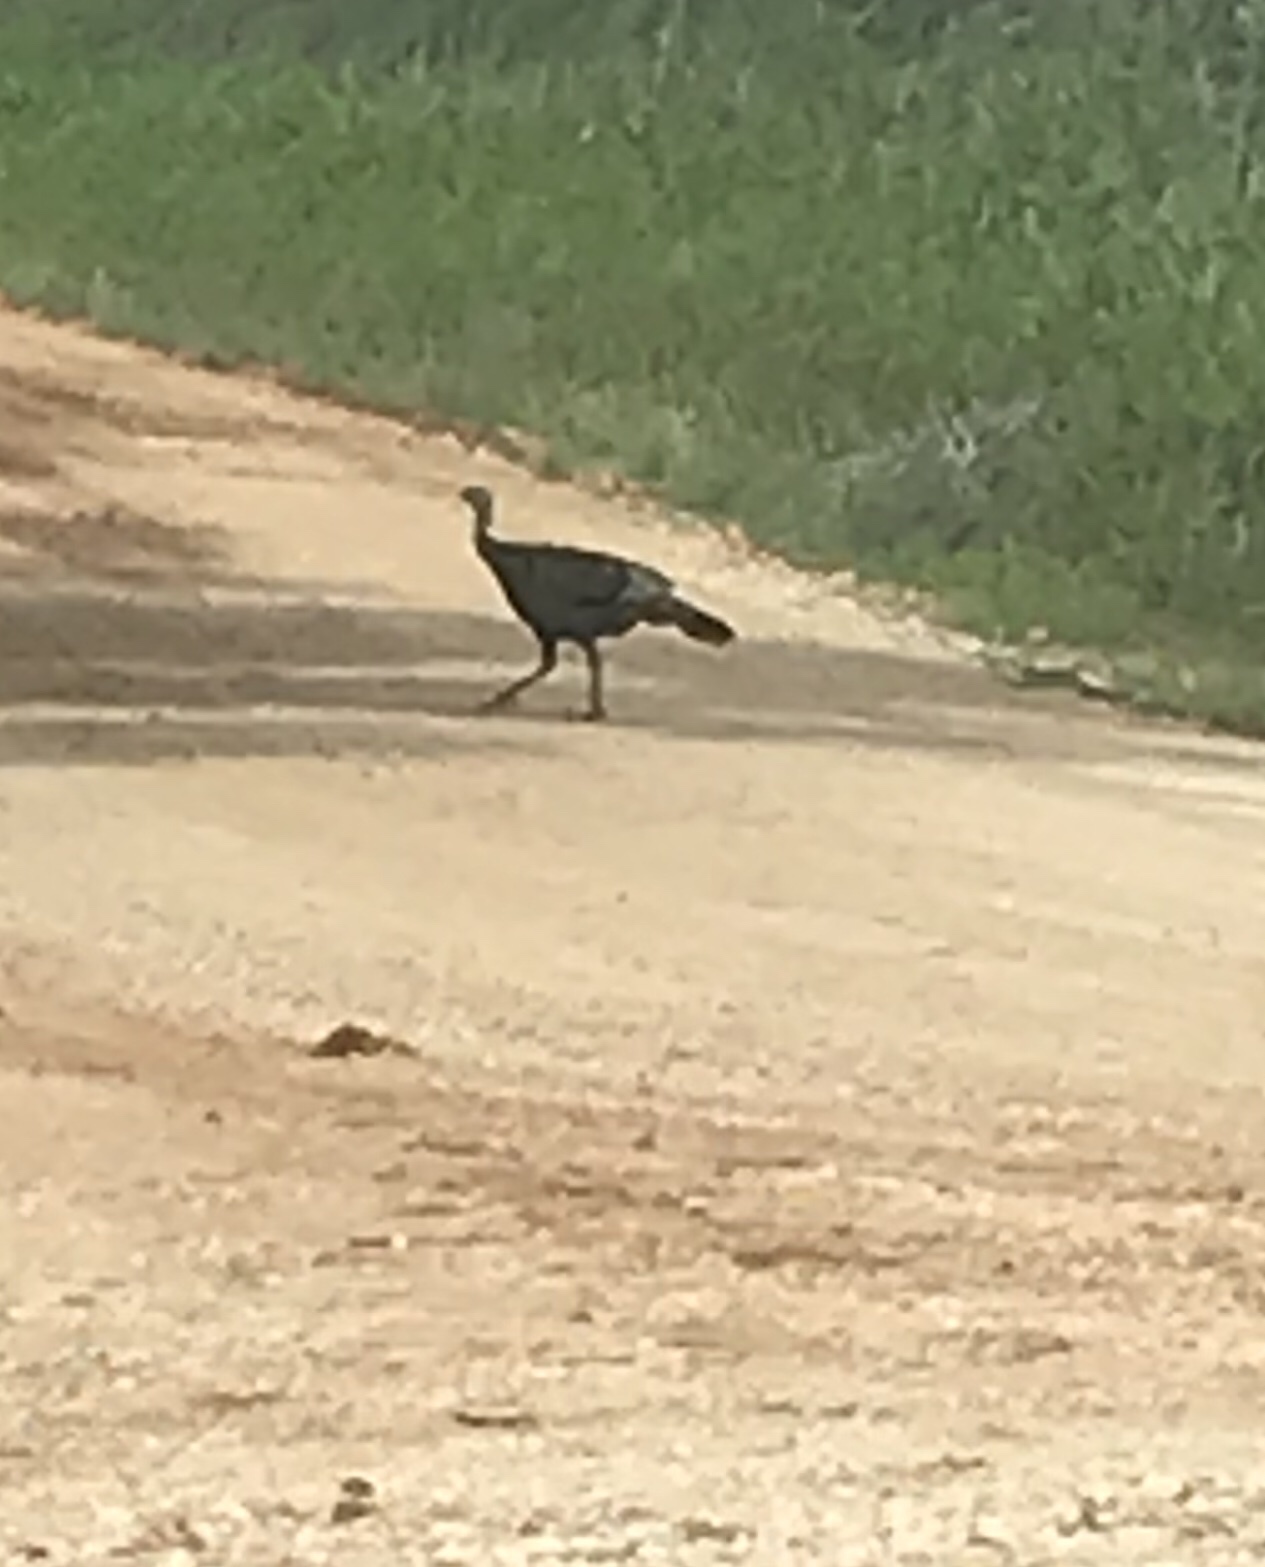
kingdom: Animalia
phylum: Chordata
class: Aves
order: Galliformes
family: Phasianidae
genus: Meleagris
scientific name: Meleagris gallopavo
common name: Wild turkey
